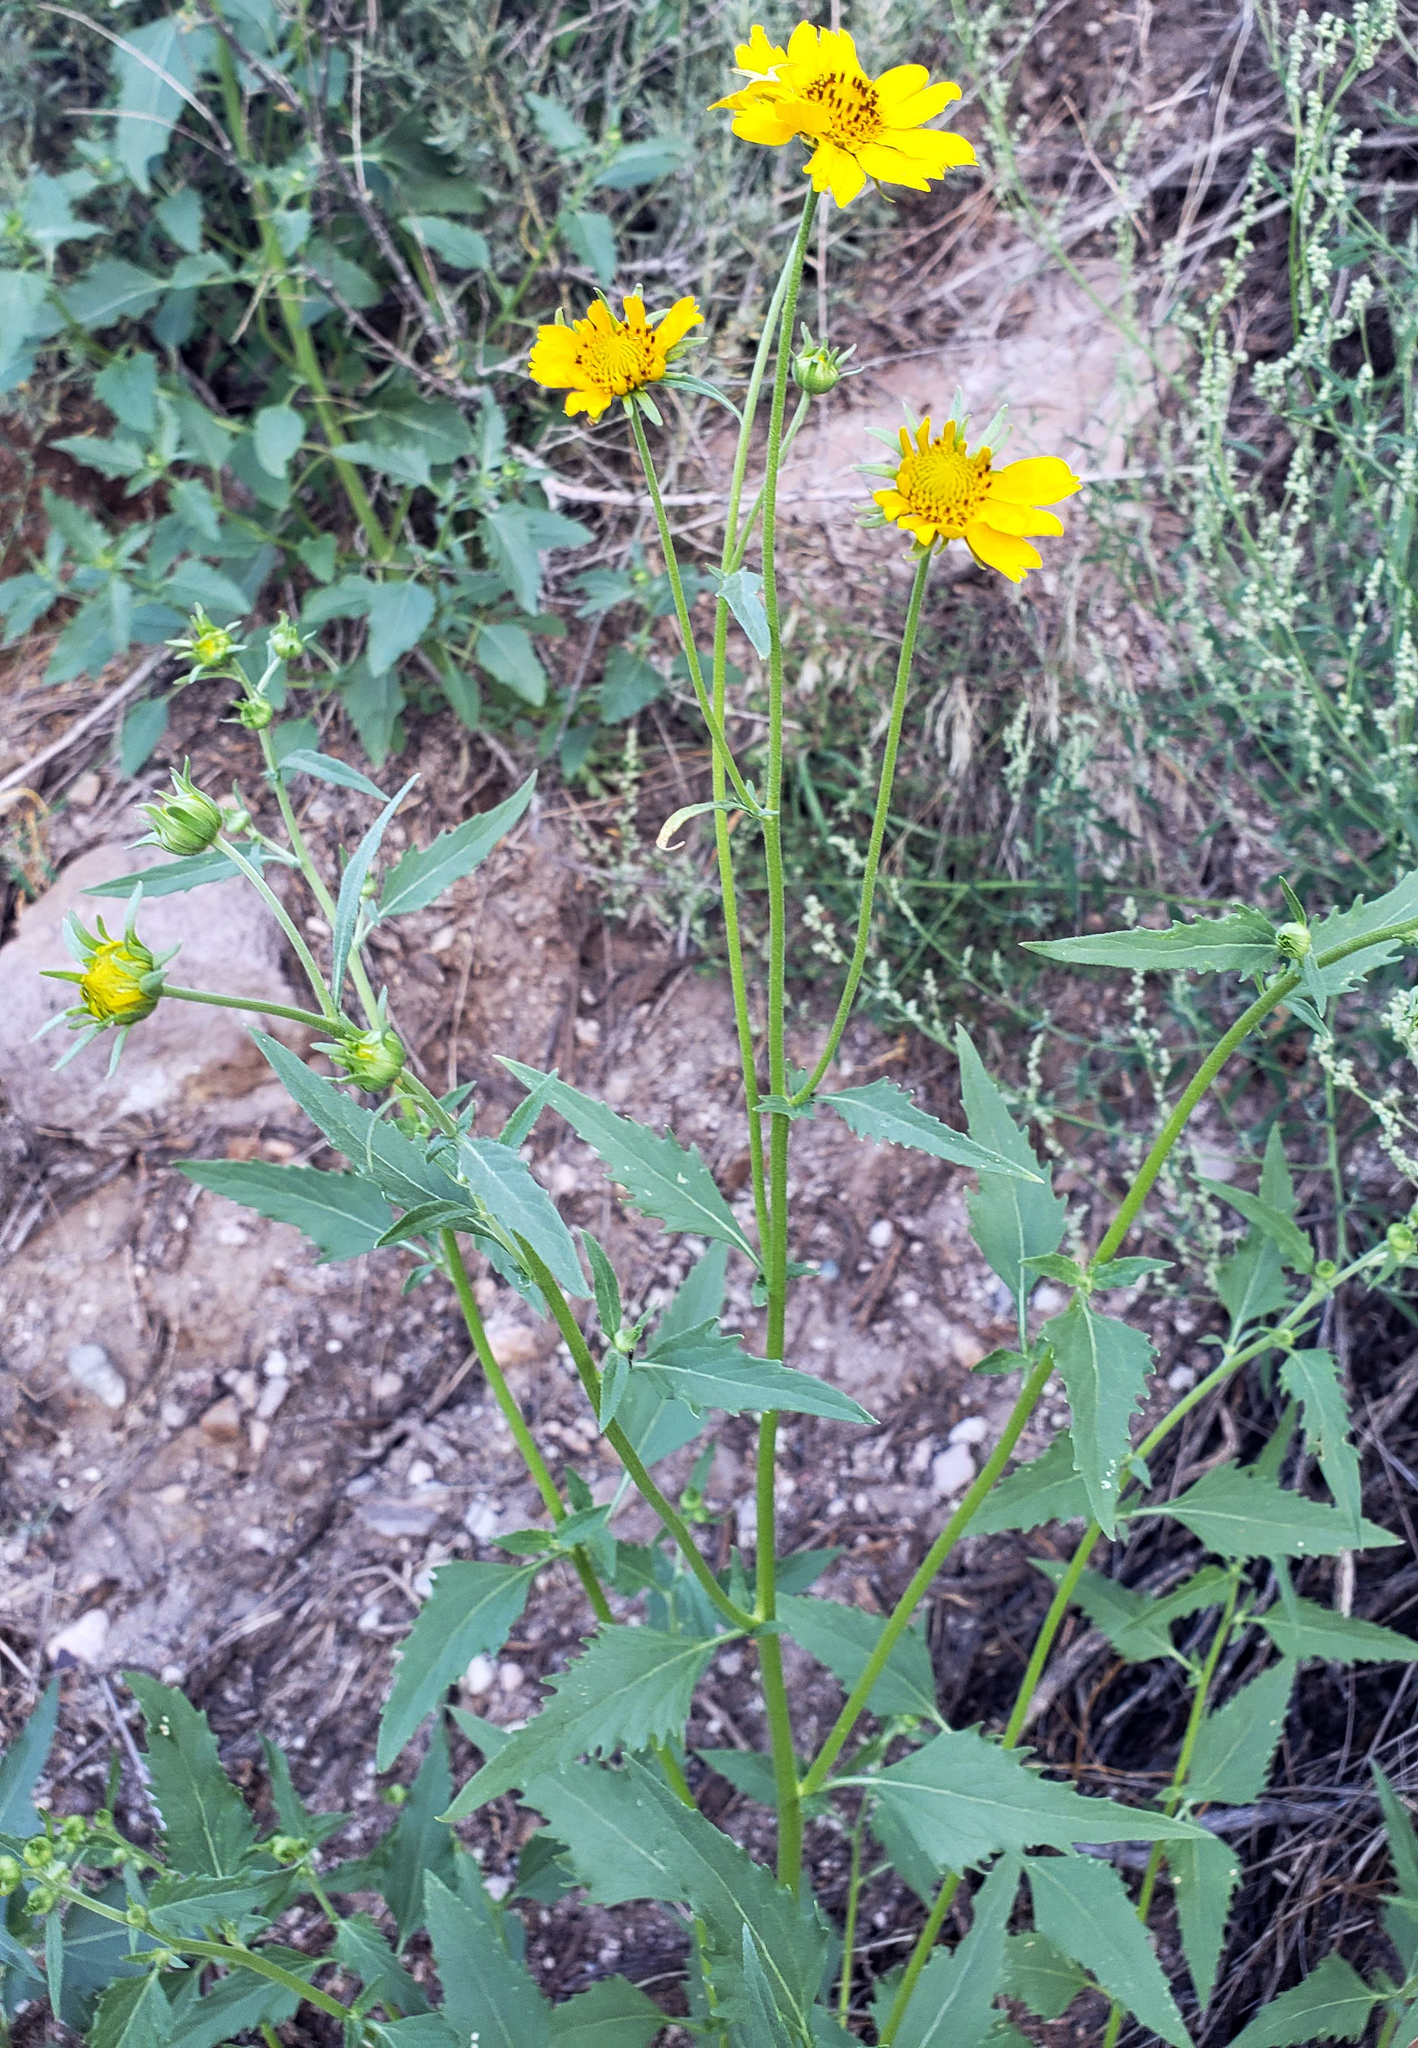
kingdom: Plantae
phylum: Tracheophyta
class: Magnoliopsida
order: Asterales
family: Asteraceae
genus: Verbesina
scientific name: Verbesina encelioides
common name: Golden crownbeard
